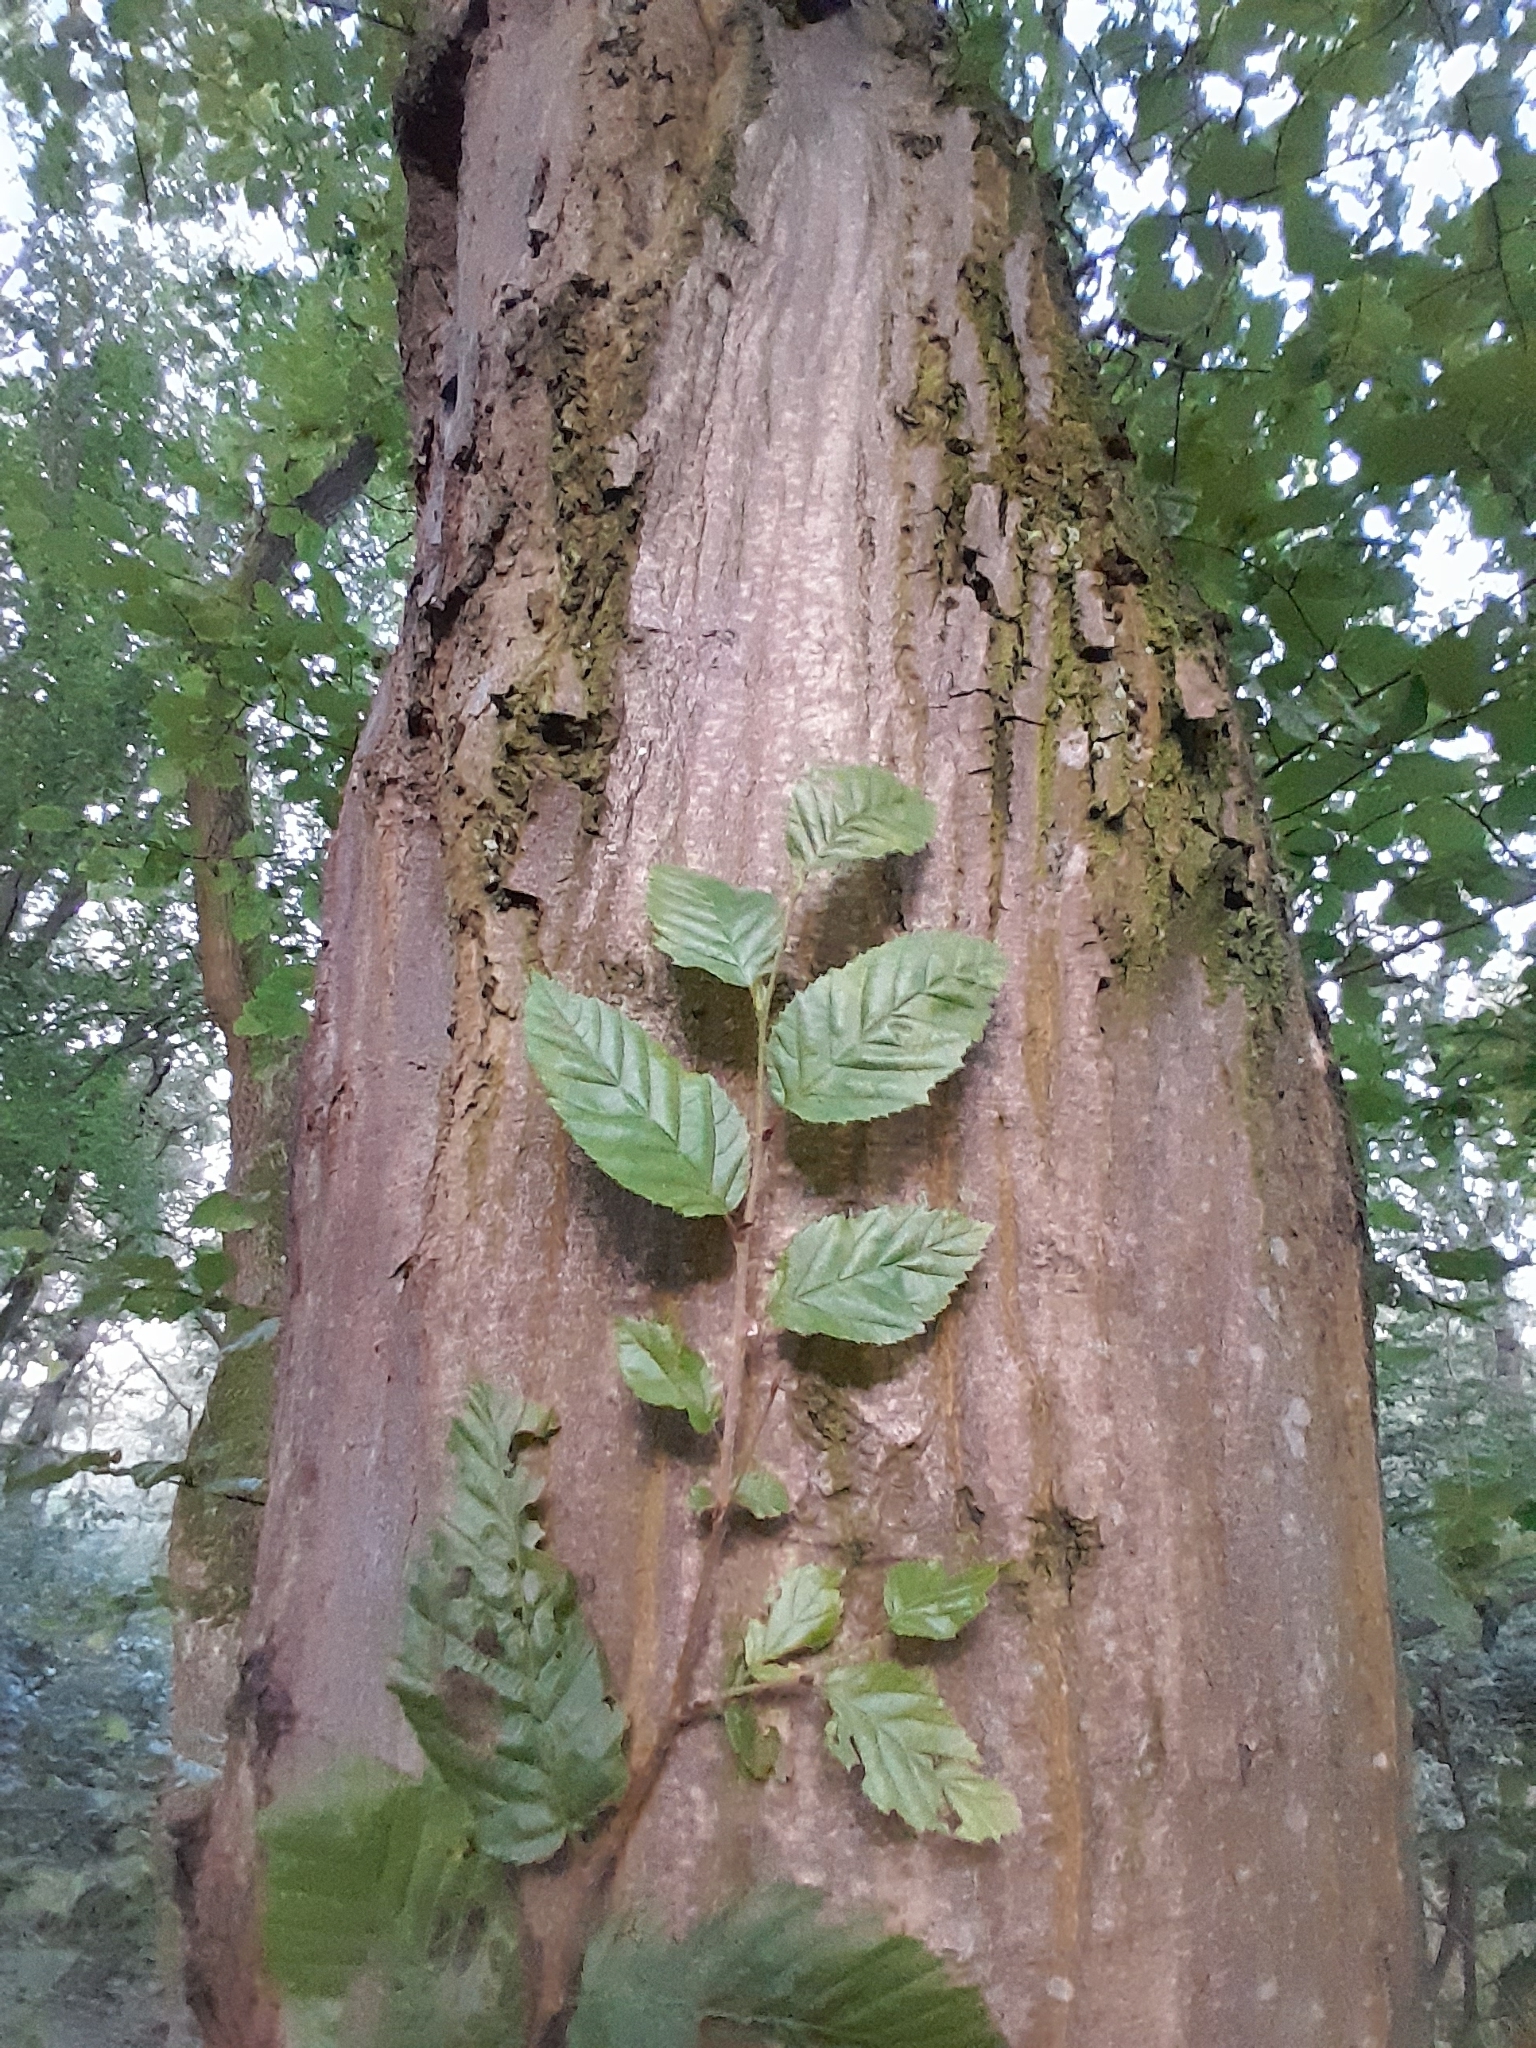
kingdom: Plantae
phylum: Tracheophyta
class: Magnoliopsida
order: Fagales
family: Betulaceae
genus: Carpinus
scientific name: Carpinus betulus
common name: Hornbeam
